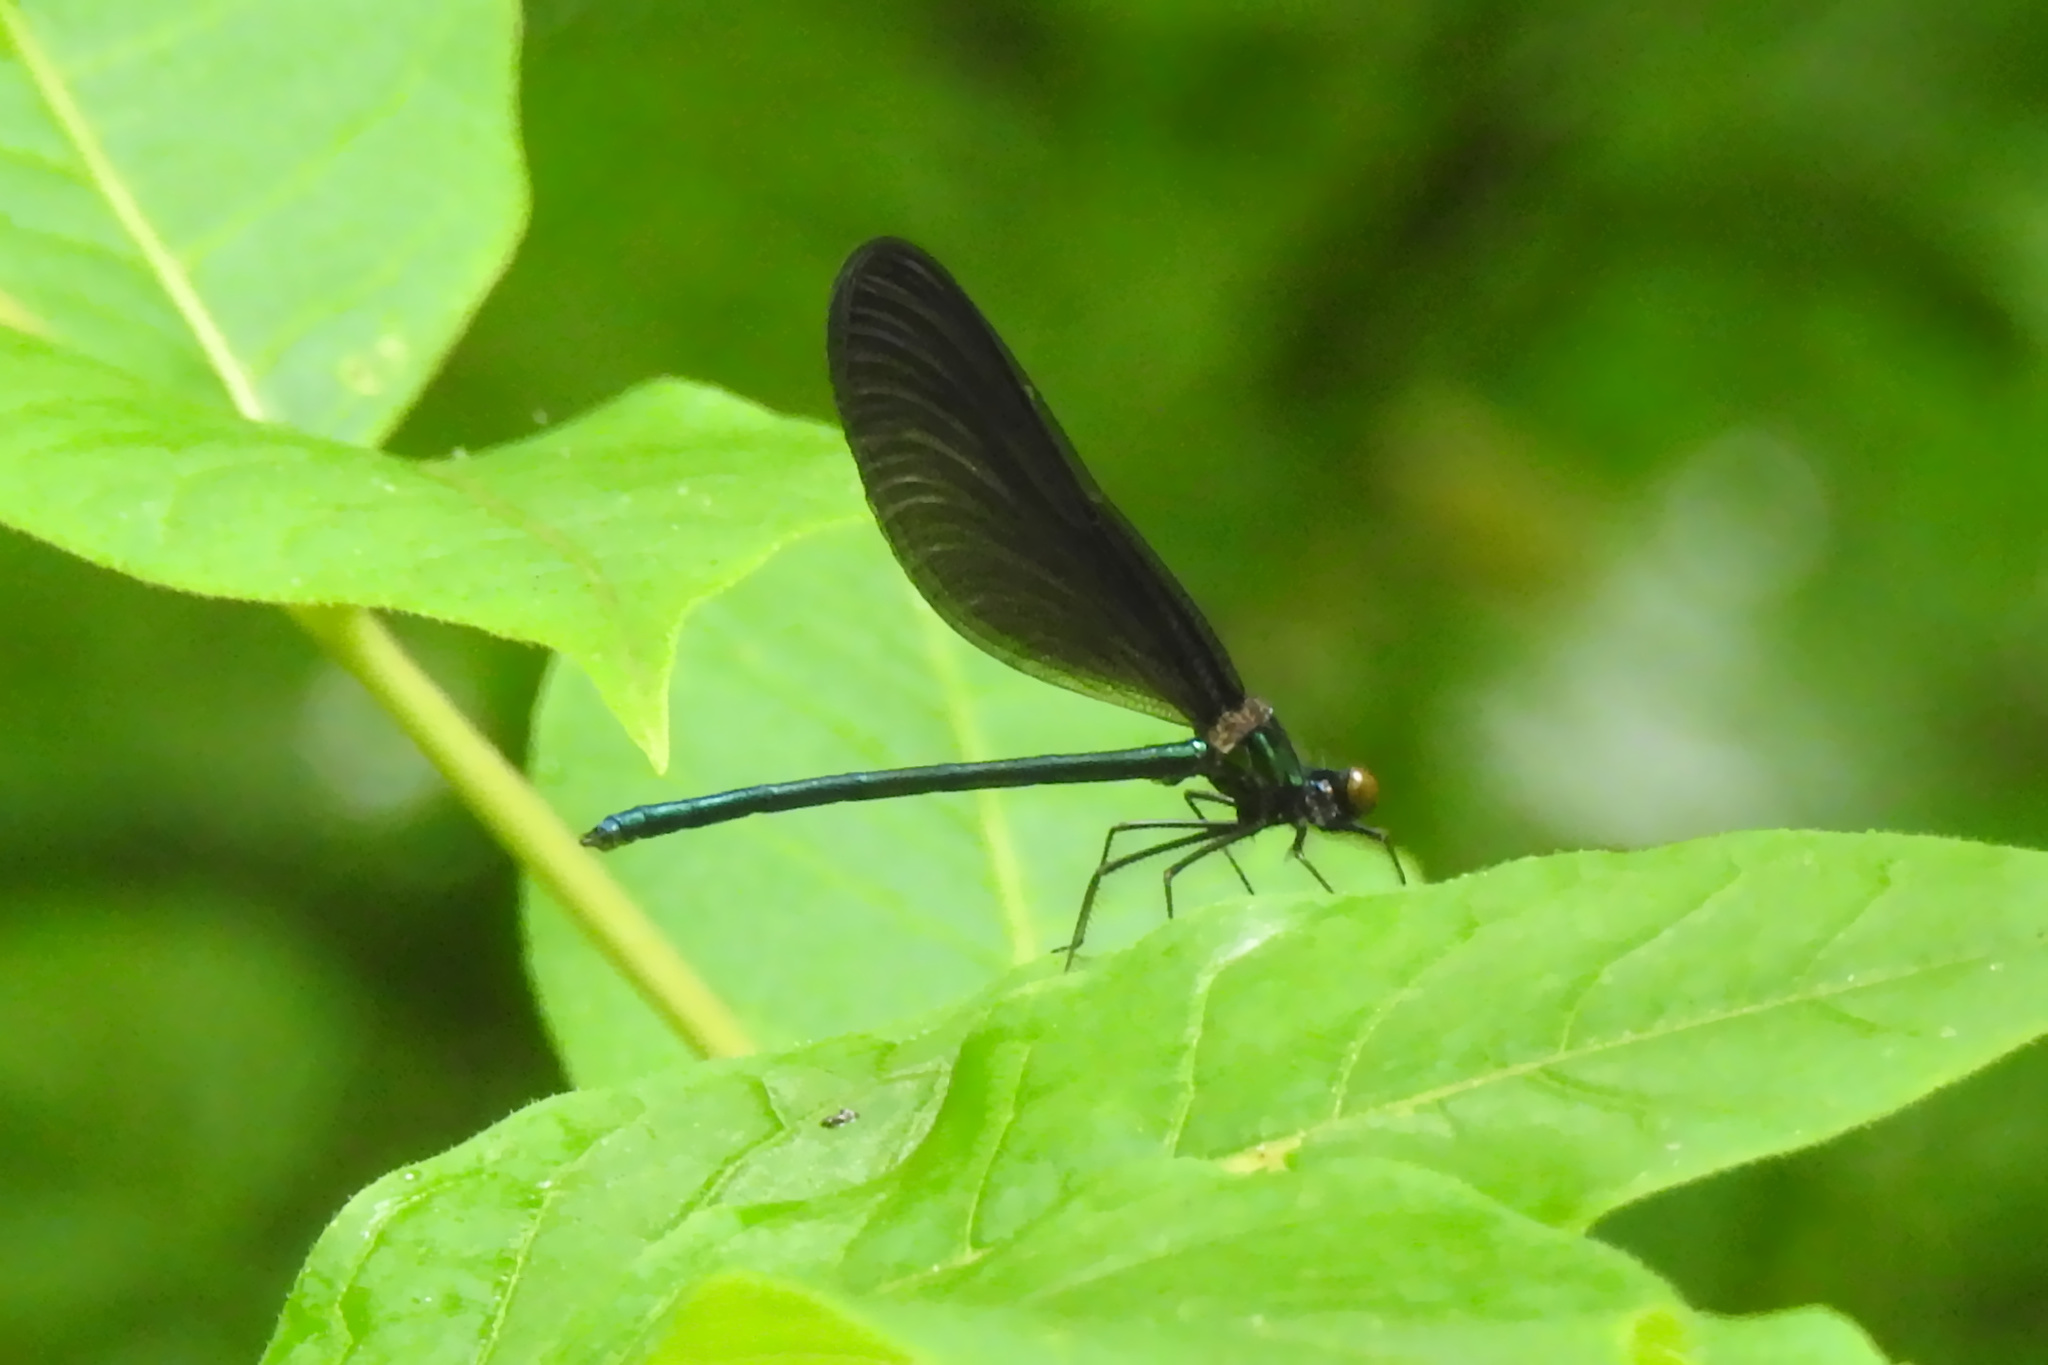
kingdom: Animalia
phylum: Arthropoda
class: Insecta
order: Odonata
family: Calopterygidae
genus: Calopteryx
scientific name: Calopteryx maculata
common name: Ebony jewelwing
